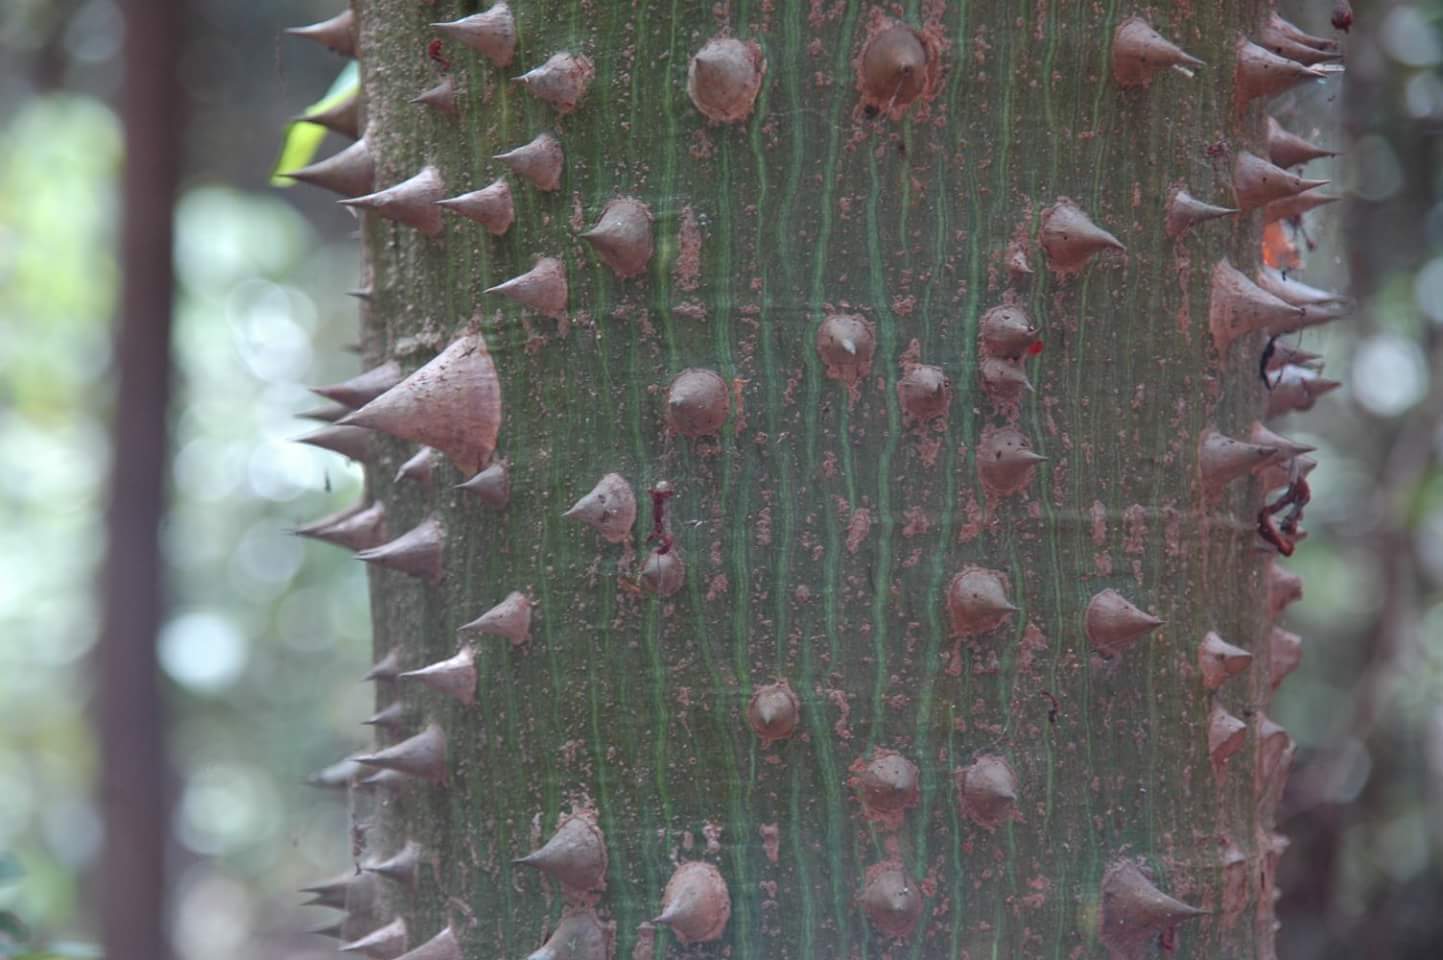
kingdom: Plantae
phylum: Tracheophyta
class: Magnoliopsida
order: Malvales
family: Malvaceae
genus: Ceiba
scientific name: Ceiba pentandra
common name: Kapok
